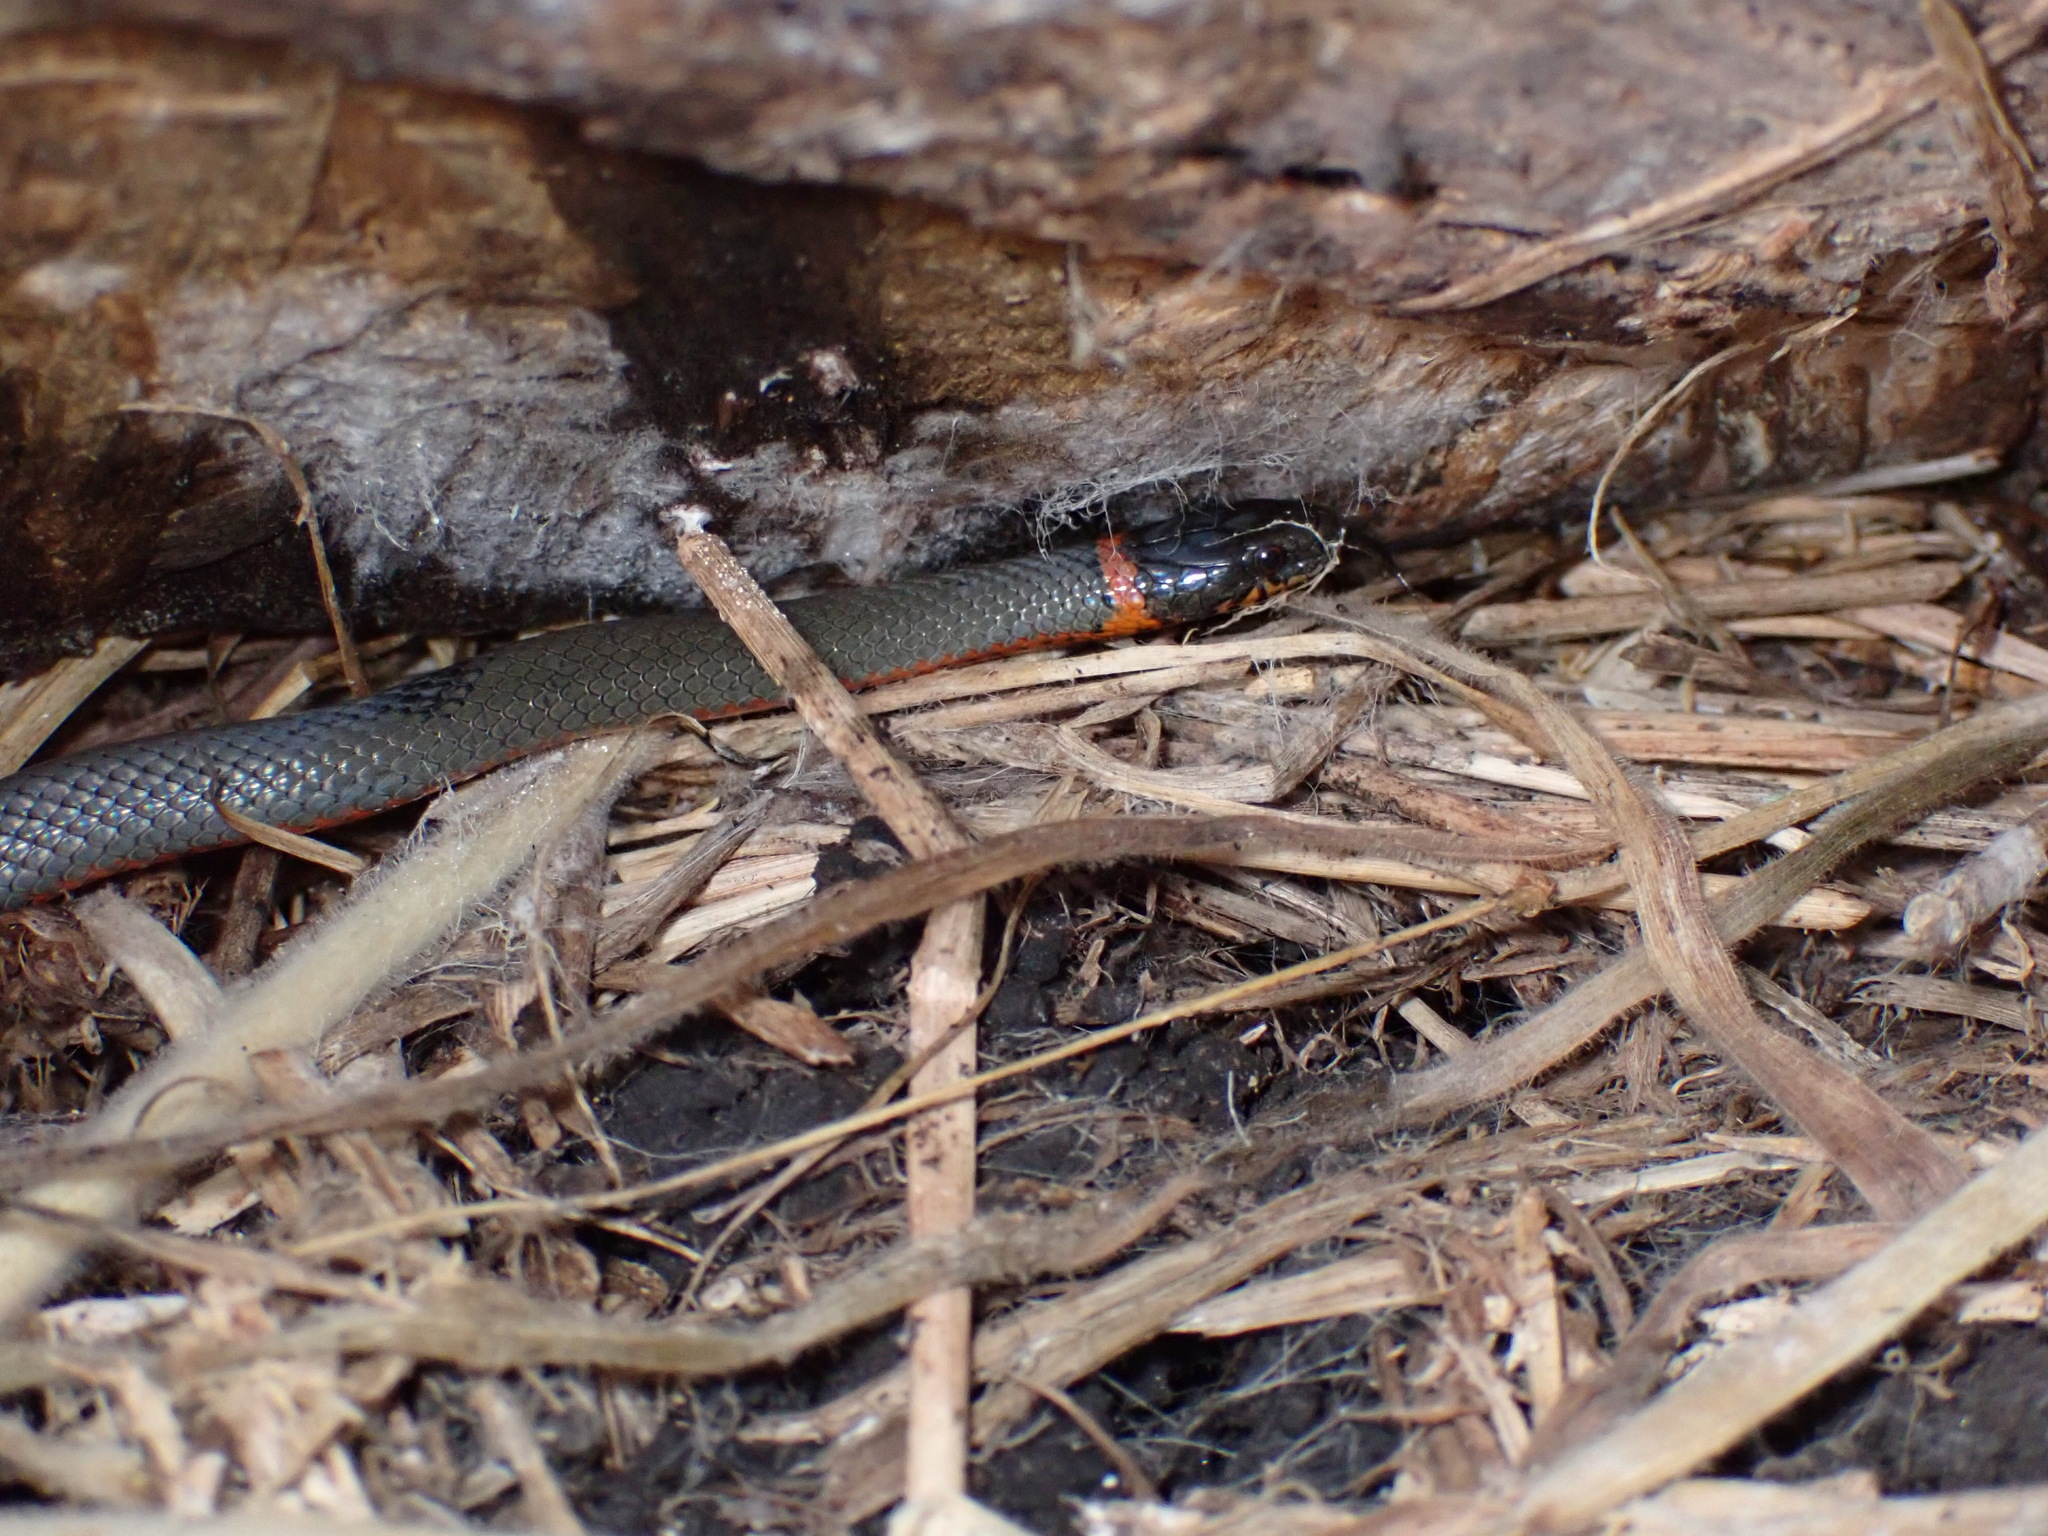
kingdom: Animalia
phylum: Chordata
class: Squamata
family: Colubridae
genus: Diadophis
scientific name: Diadophis punctatus
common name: Ringneck snake
